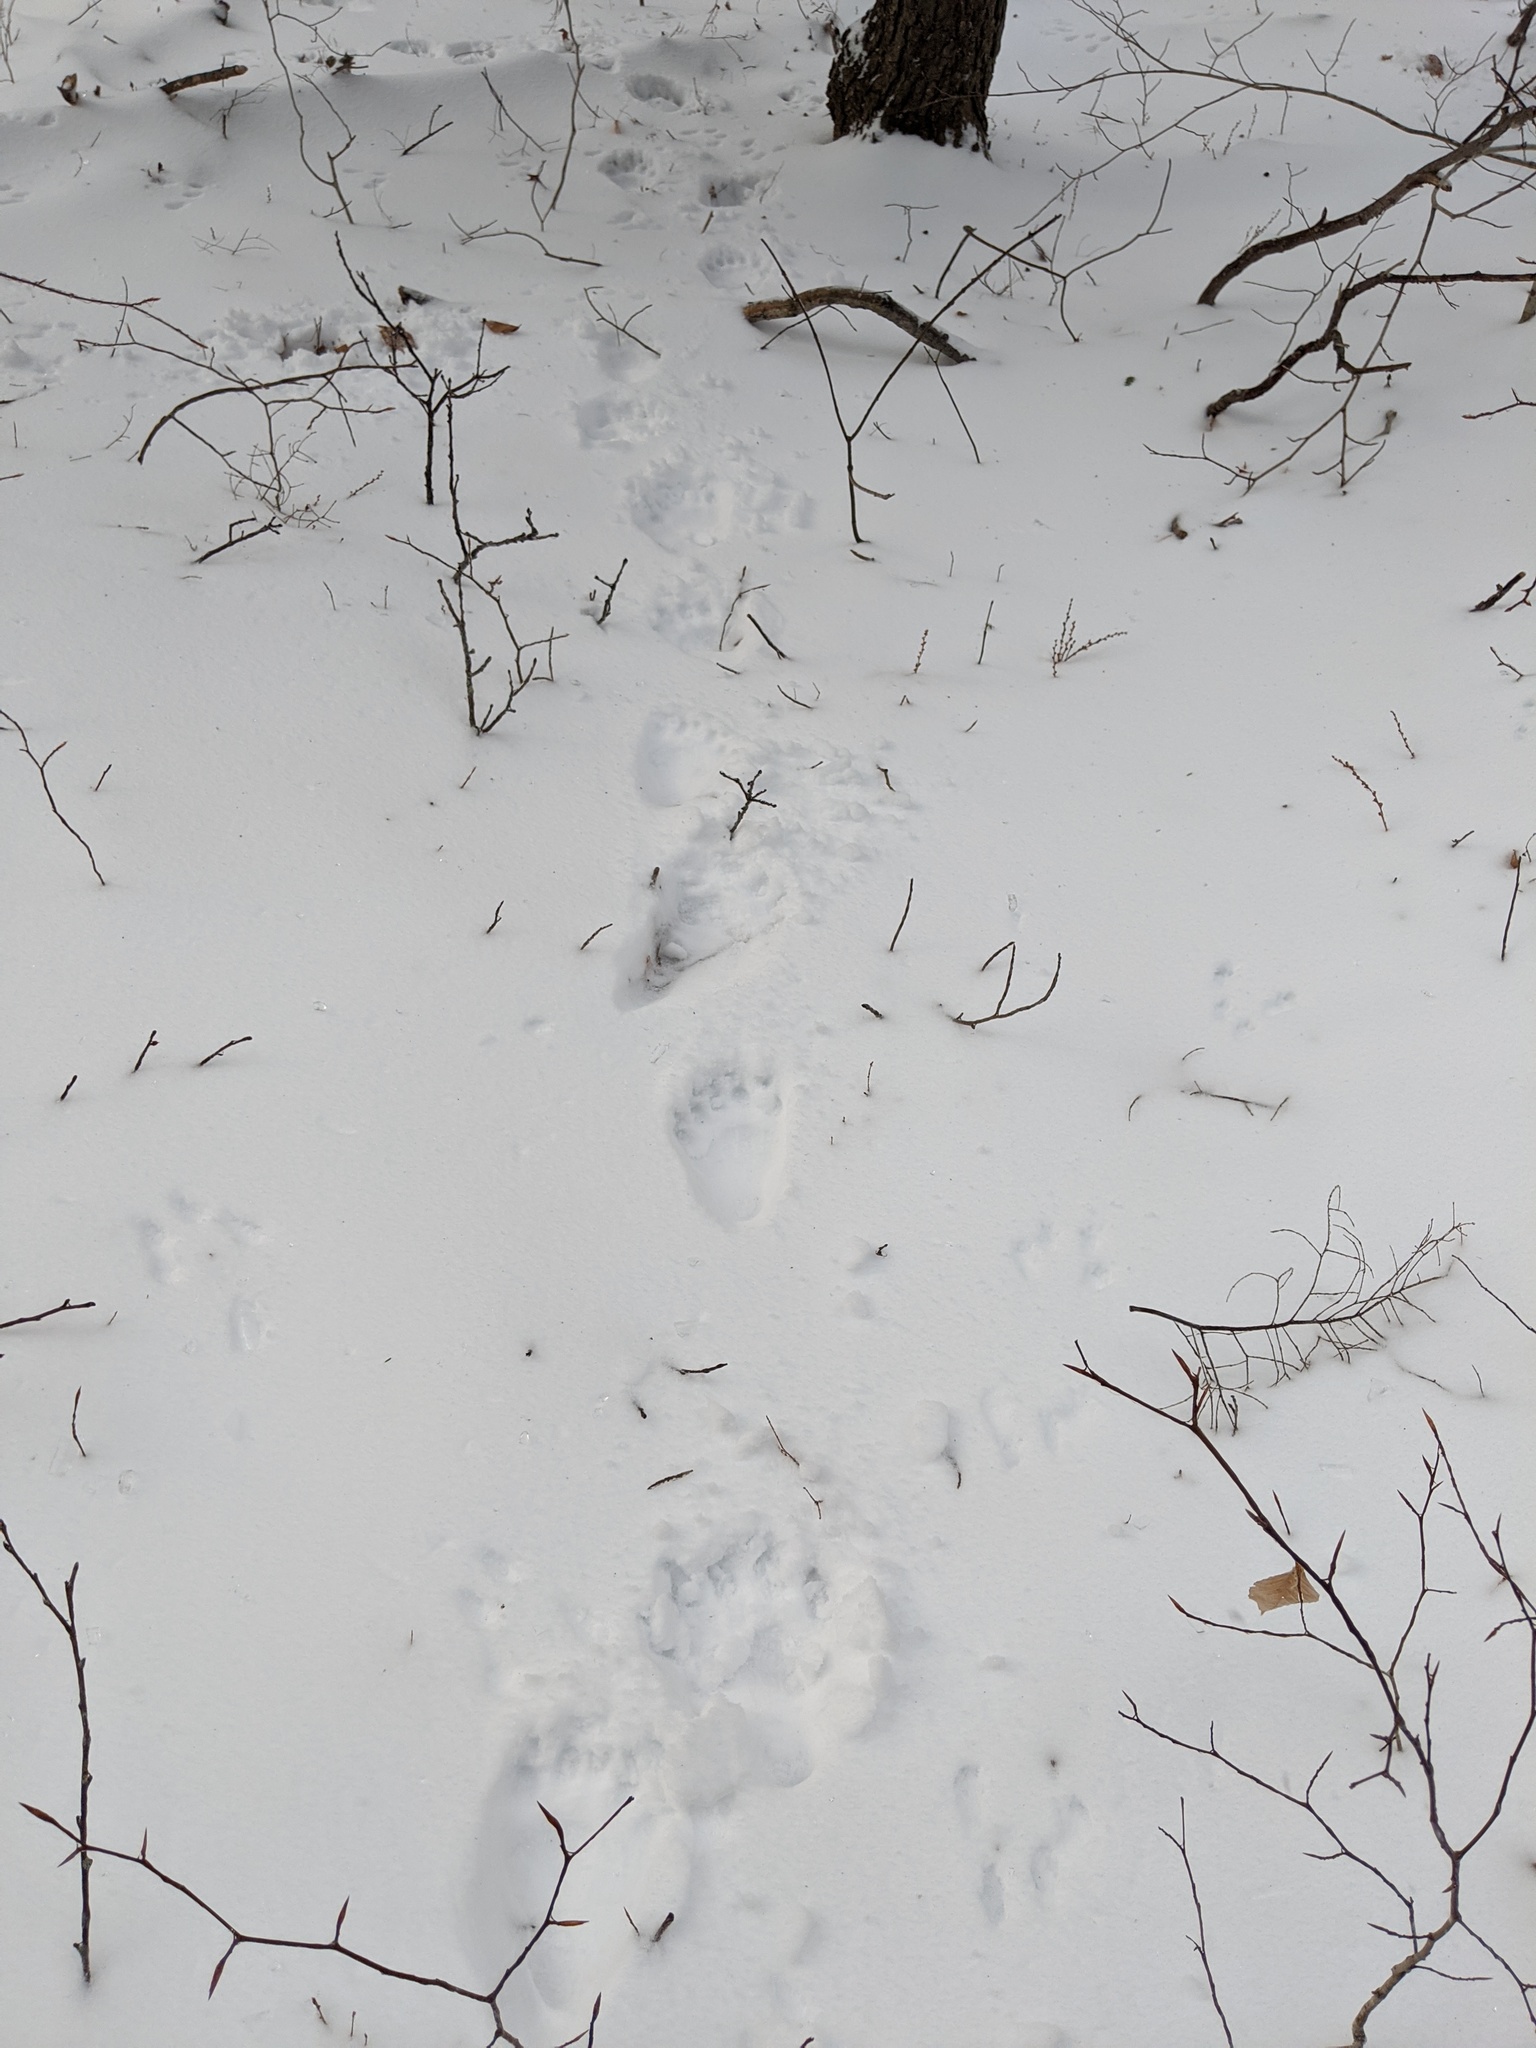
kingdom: Animalia
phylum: Chordata
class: Mammalia
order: Carnivora
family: Ursidae
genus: Ursus
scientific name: Ursus americanus
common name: American black bear
